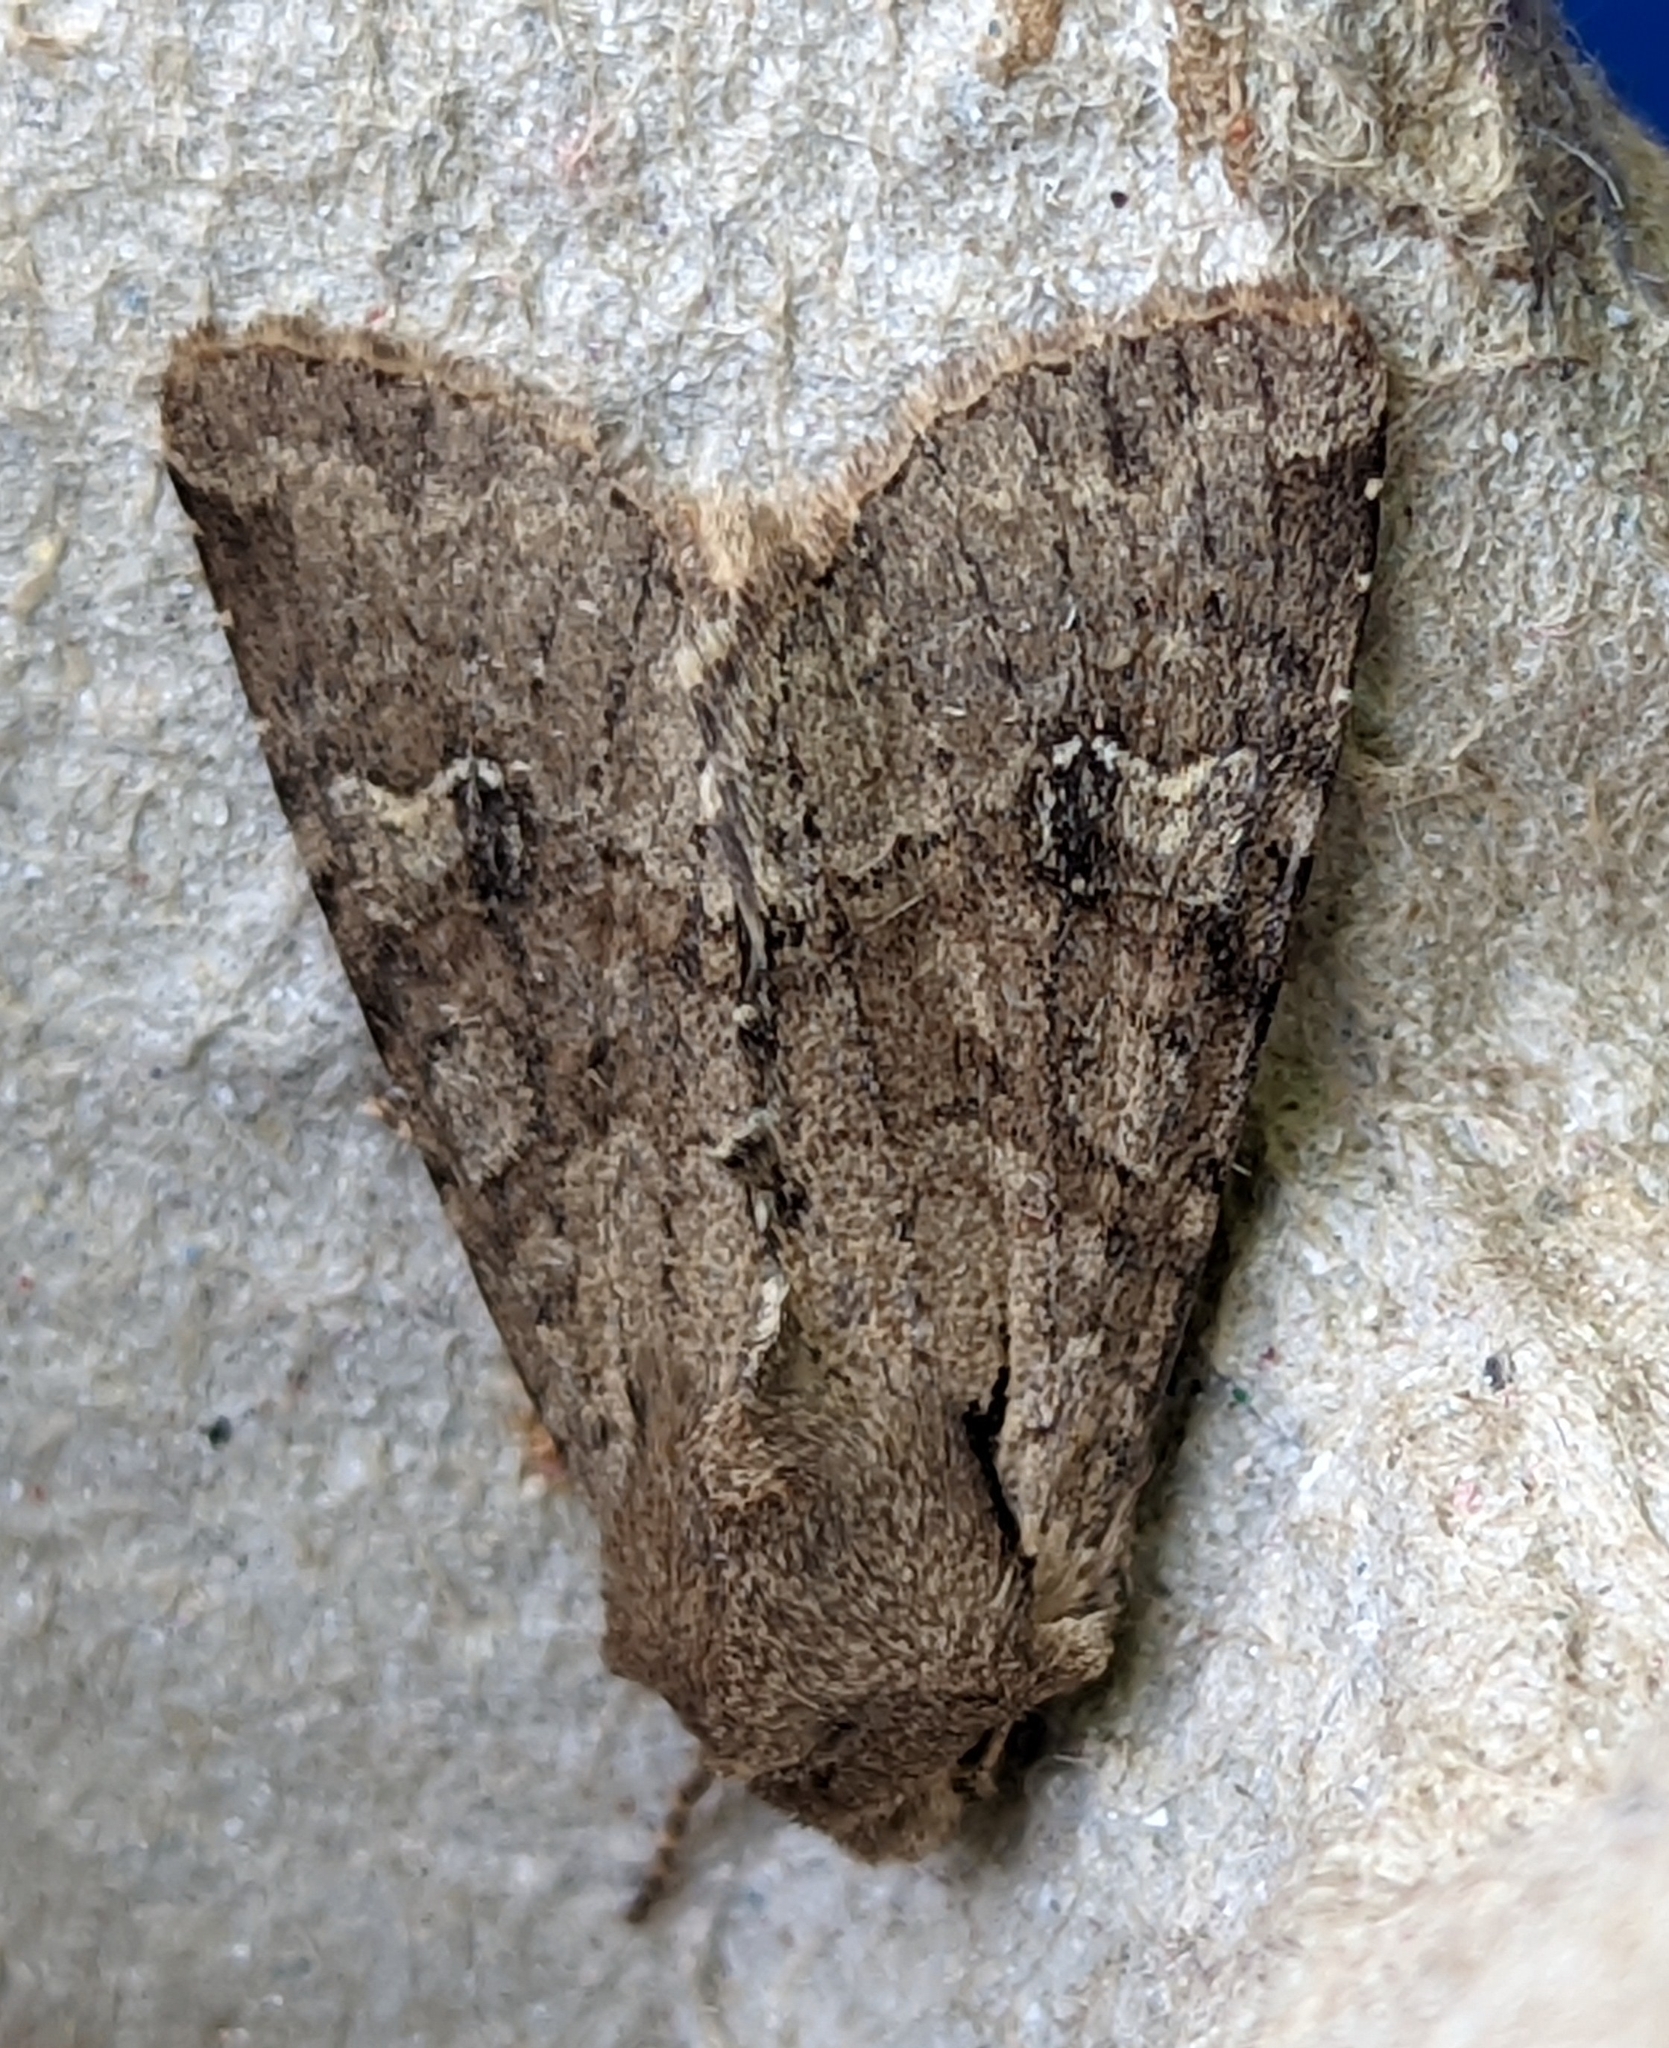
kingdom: Animalia
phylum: Arthropoda
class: Insecta
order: Lepidoptera
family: Noctuidae
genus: Apamea
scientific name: Apamea sordens
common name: Rustic shoulder-knot
